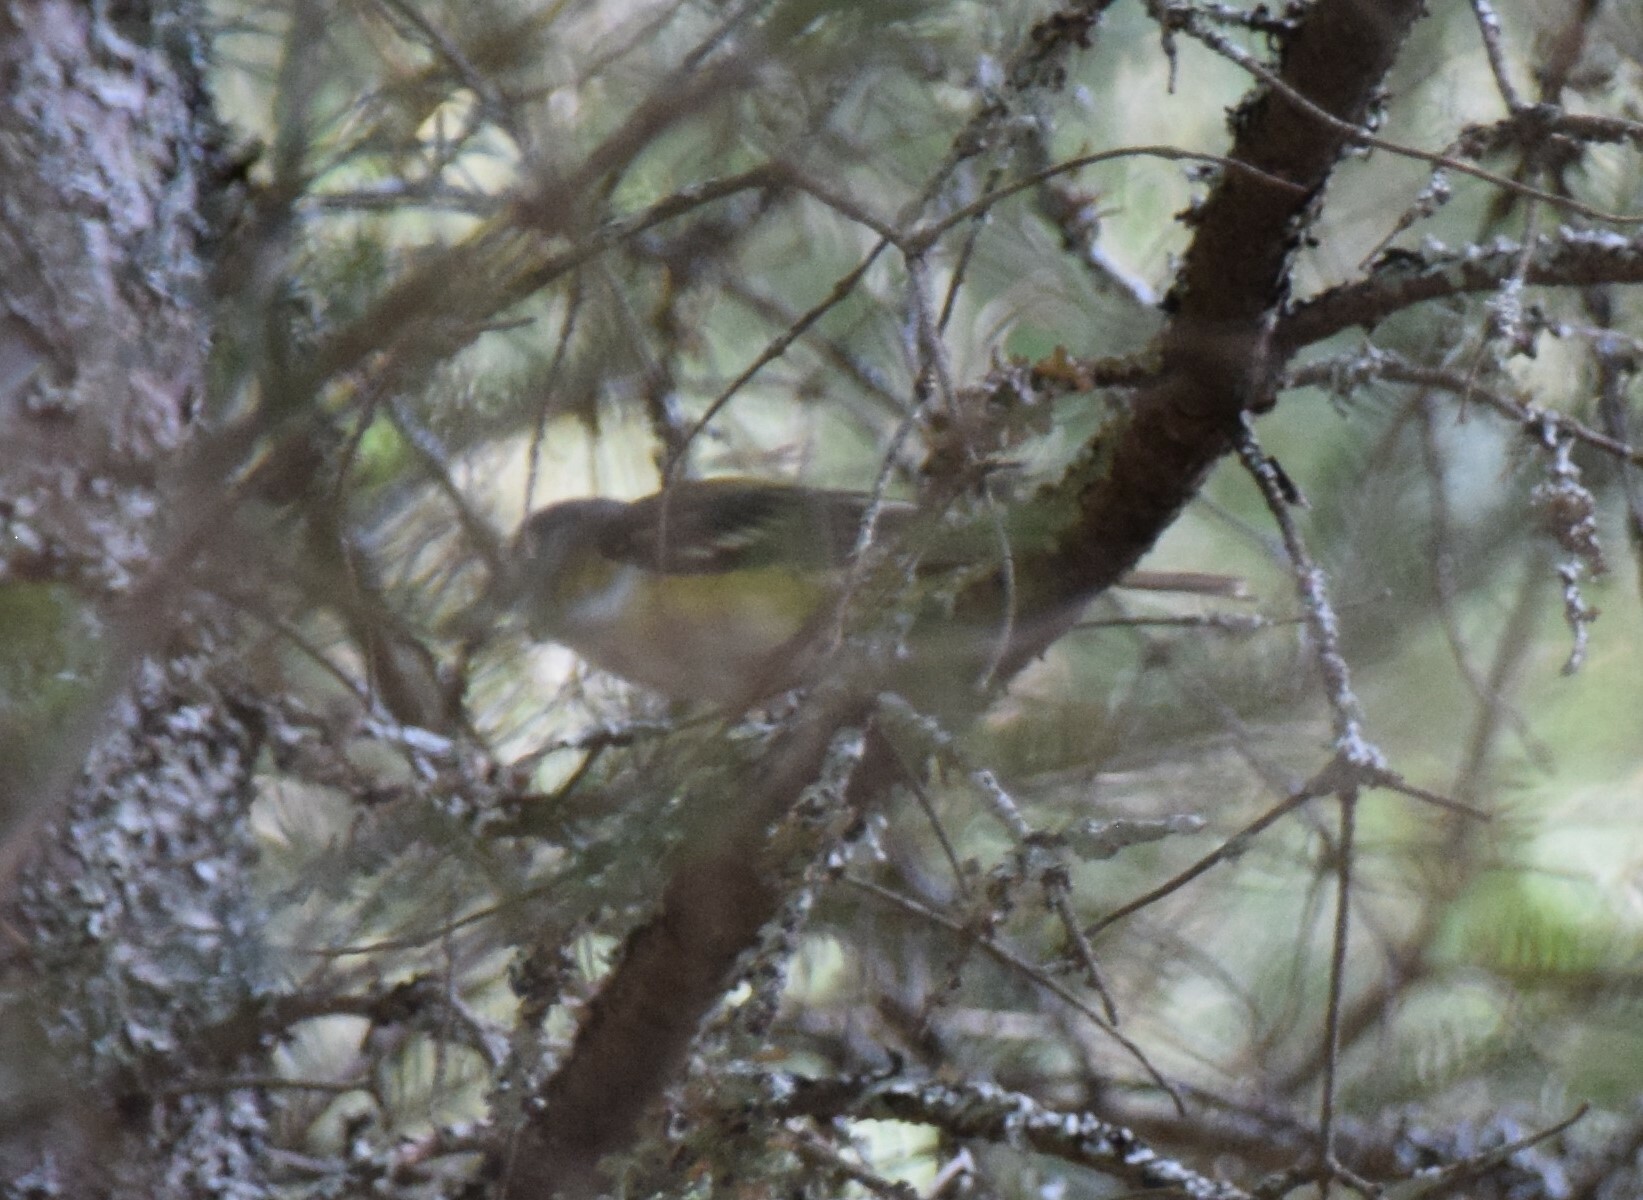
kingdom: Animalia
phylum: Chordata
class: Aves
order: Passeriformes
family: Vireonidae
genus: Vireo
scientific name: Vireo solitarius
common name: Blue-headed vireo
